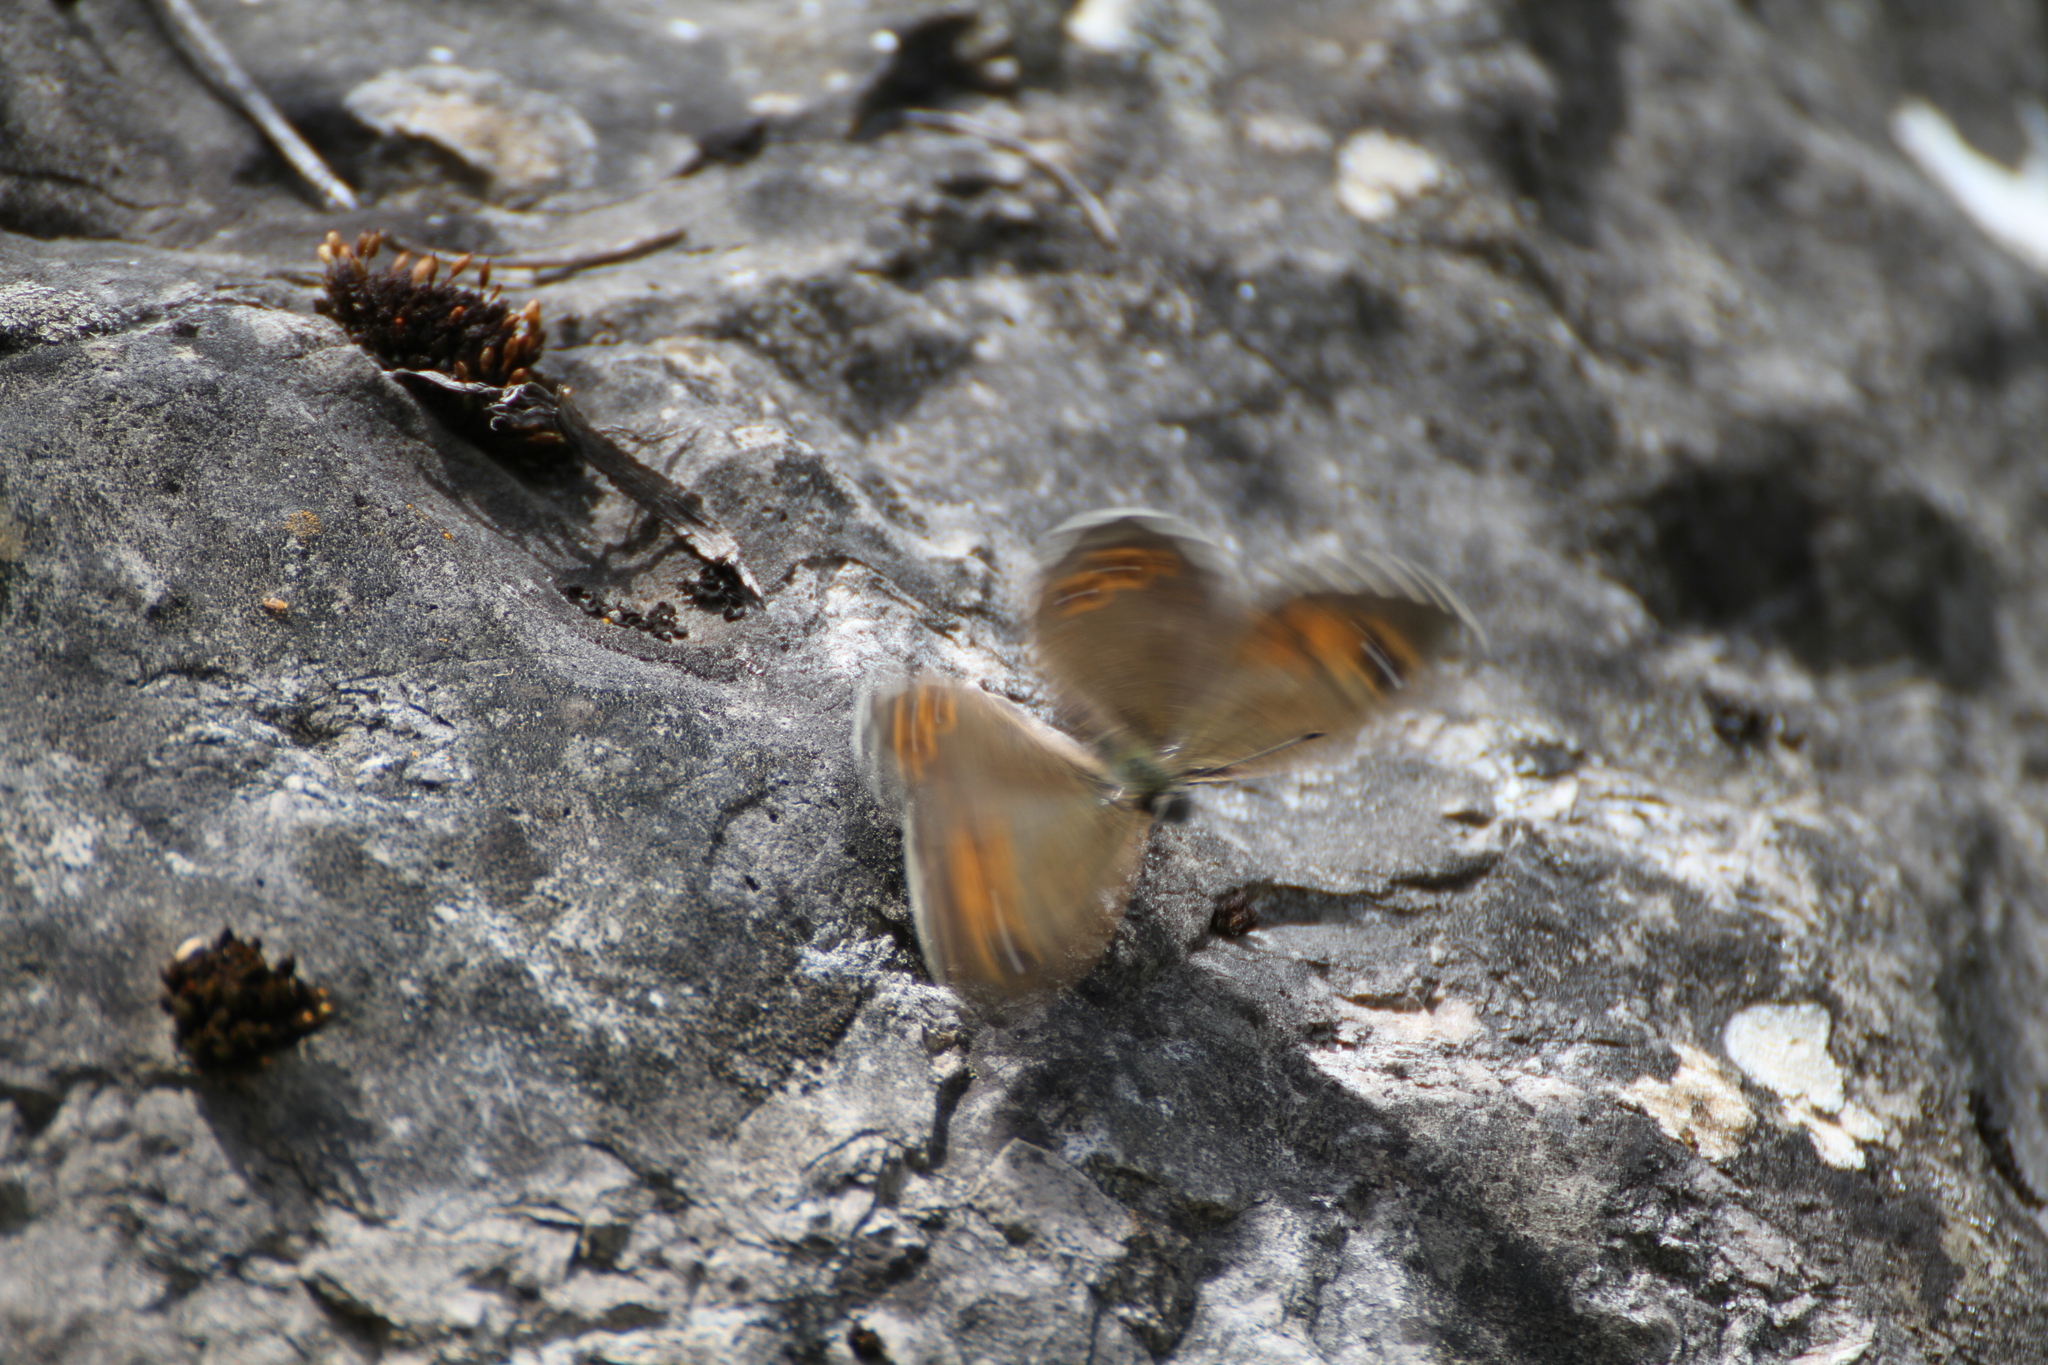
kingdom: Animalia
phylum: Arthropoda
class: Insecta
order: Lepidoptera
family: Nymphalidae
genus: Pararge
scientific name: Pararge Lasiommata maera
